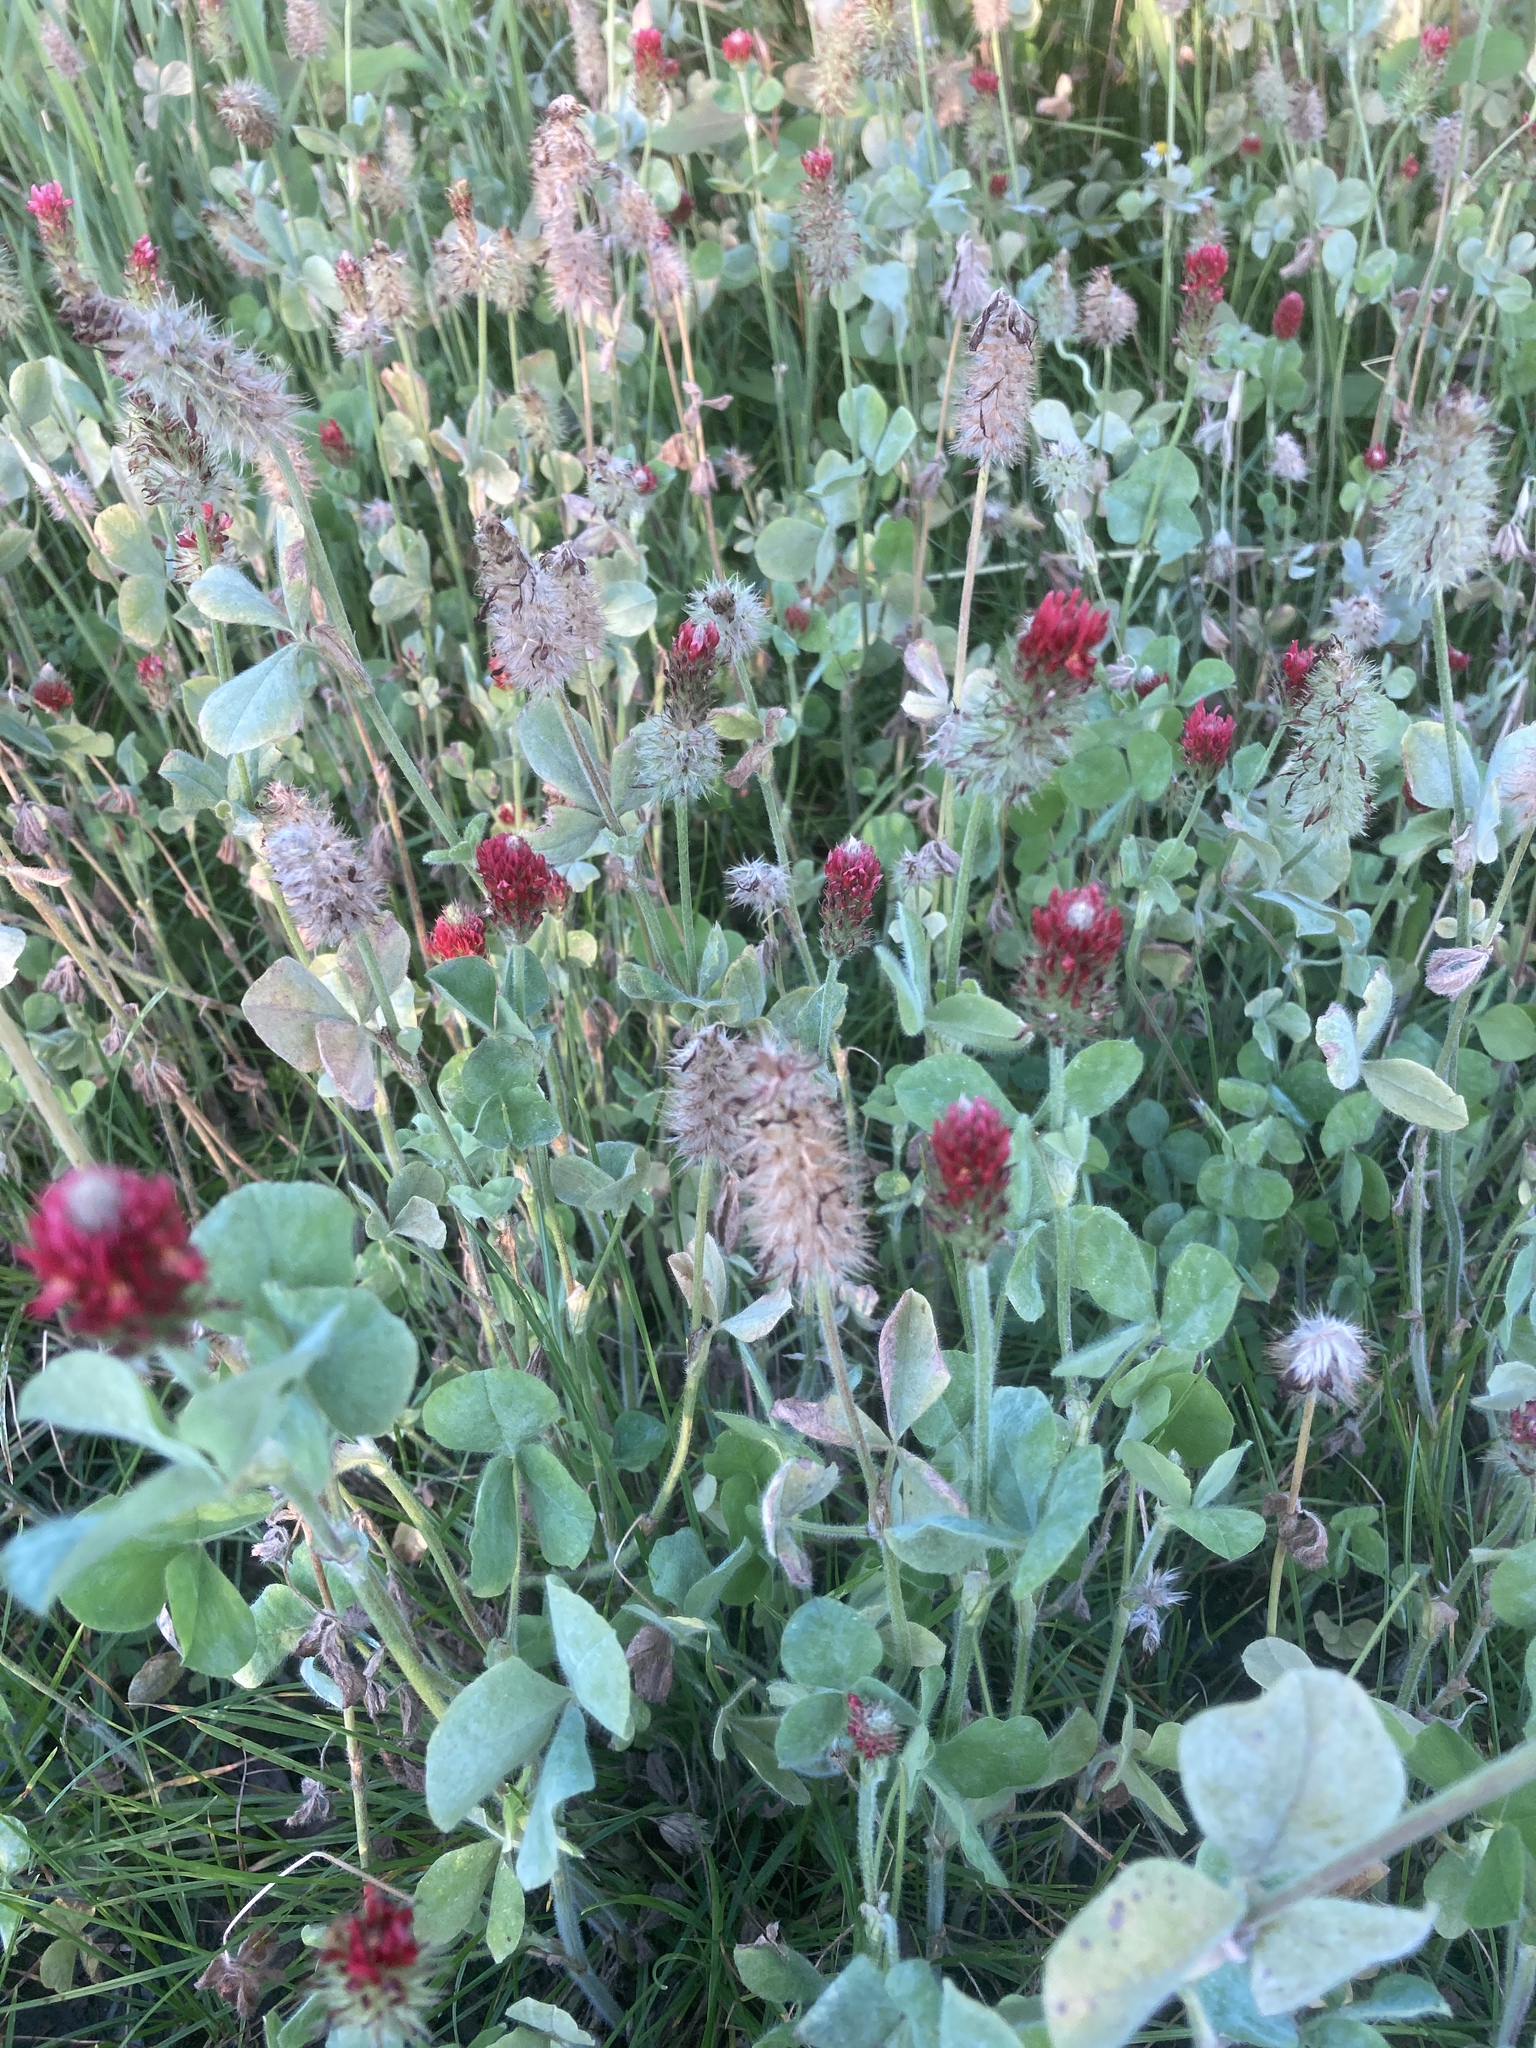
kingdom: Plantae
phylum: Tracheophyta
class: Magnoliopsida
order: Fabales
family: Fabaceae
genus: Trifolium
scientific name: Trifolium incarnatum
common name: Crimson clover
